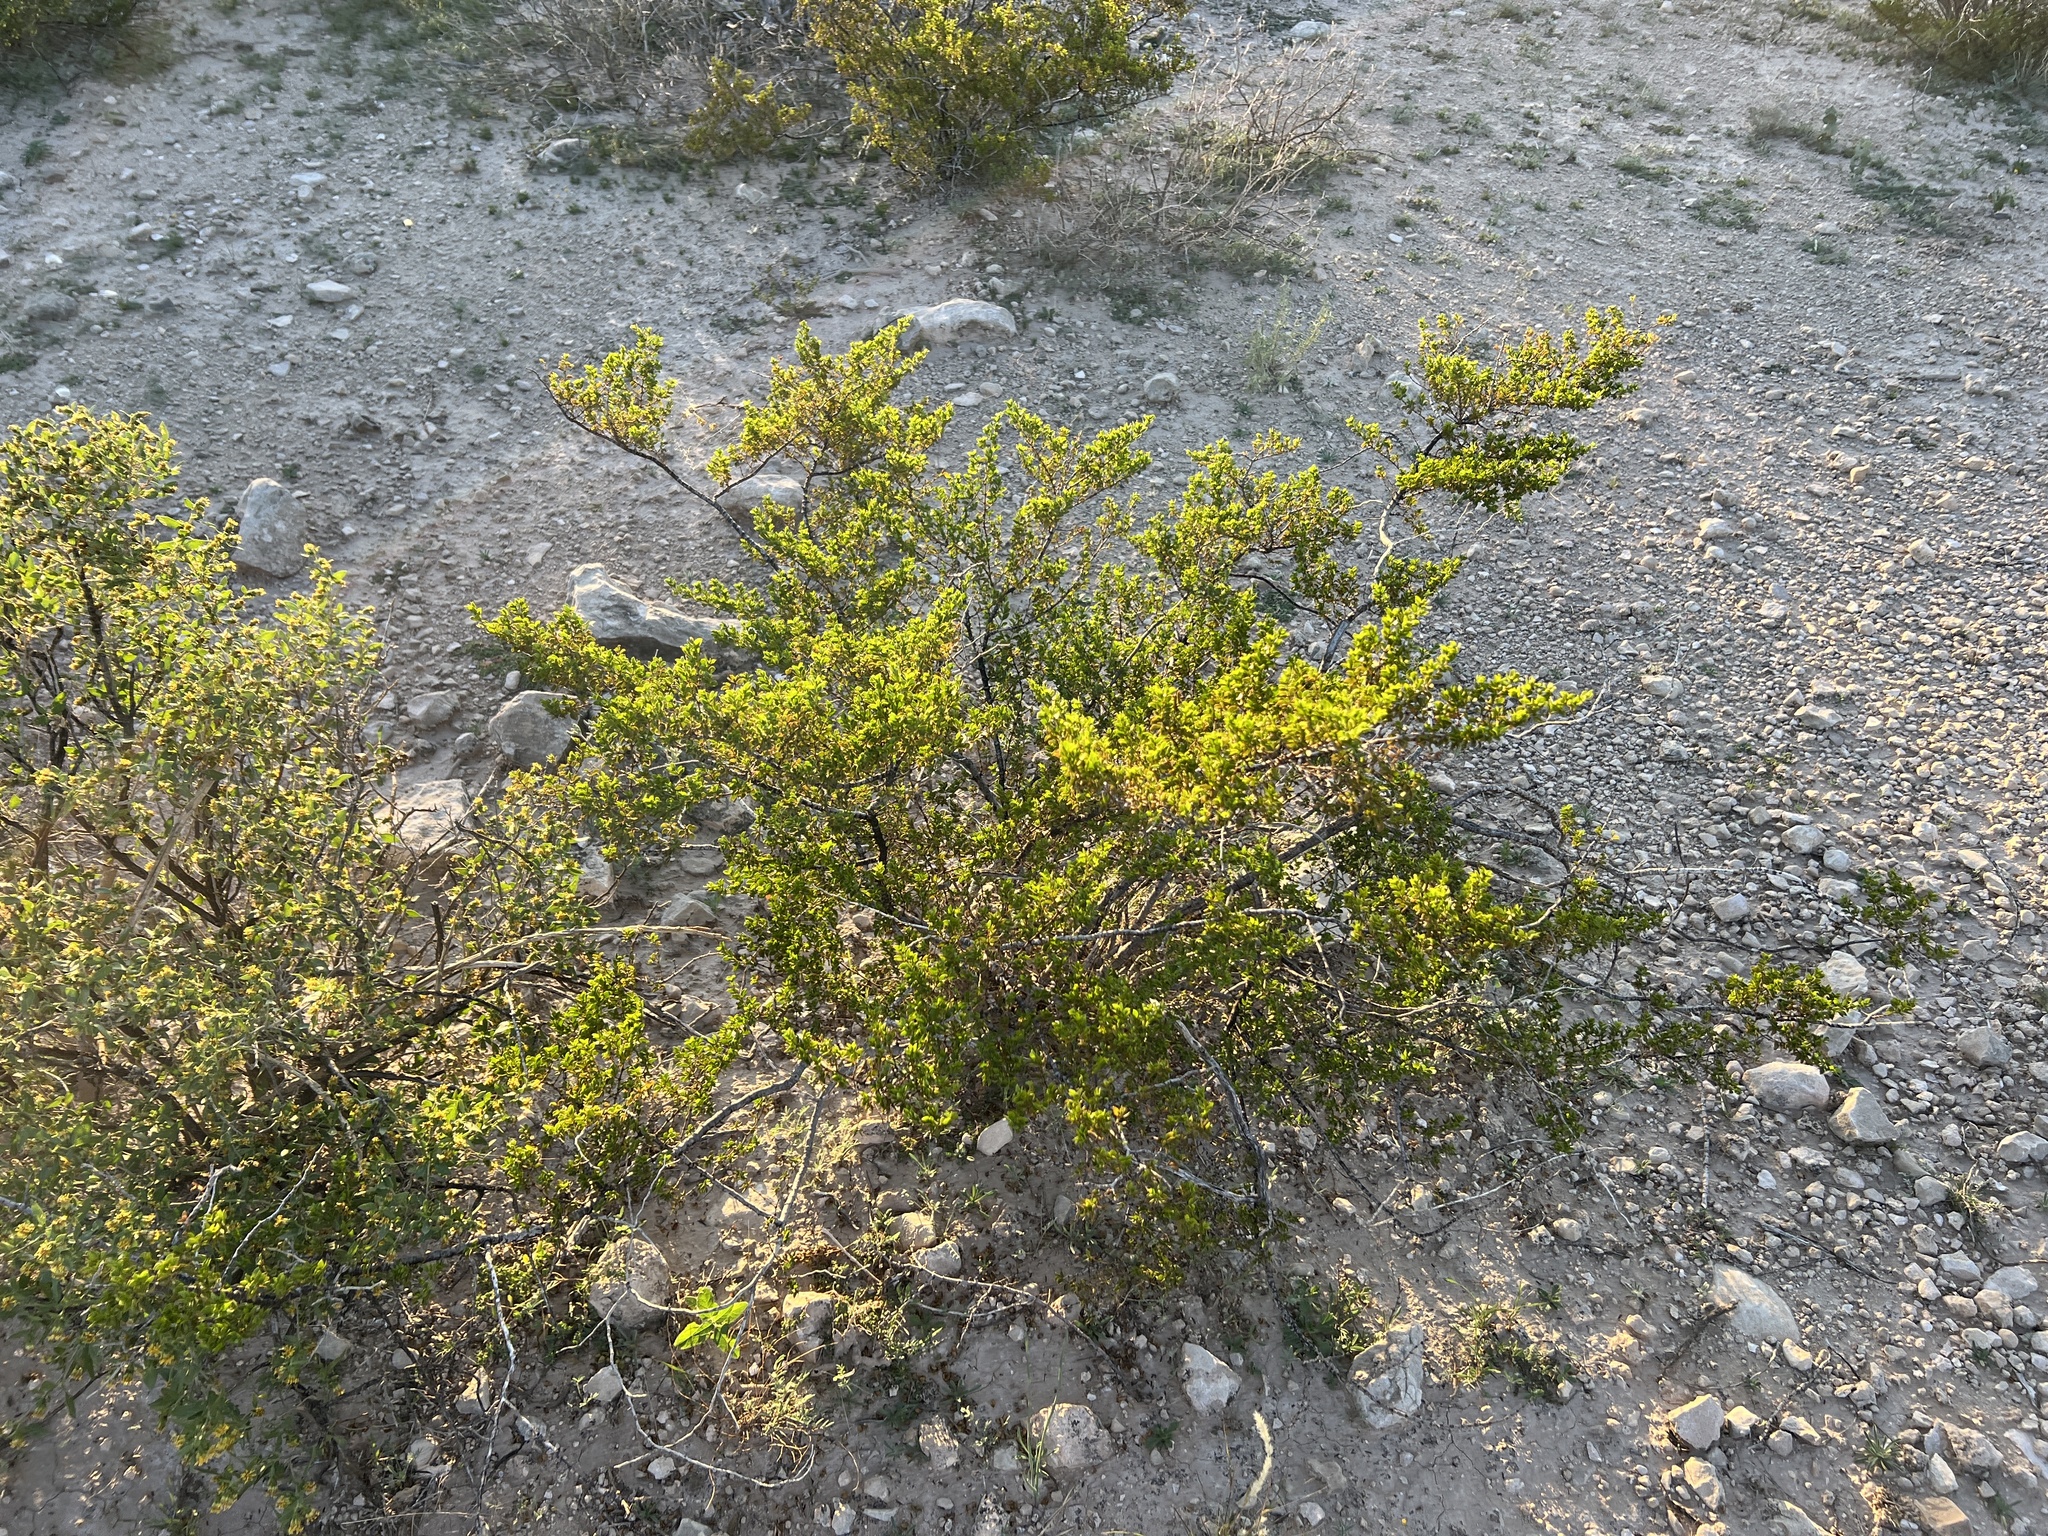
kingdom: Plantae
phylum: Tracheophyta
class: Magnoliopsida
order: Zygophyllales
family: Zygophyllaceae
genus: Larrea
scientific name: Larrea tridentata
